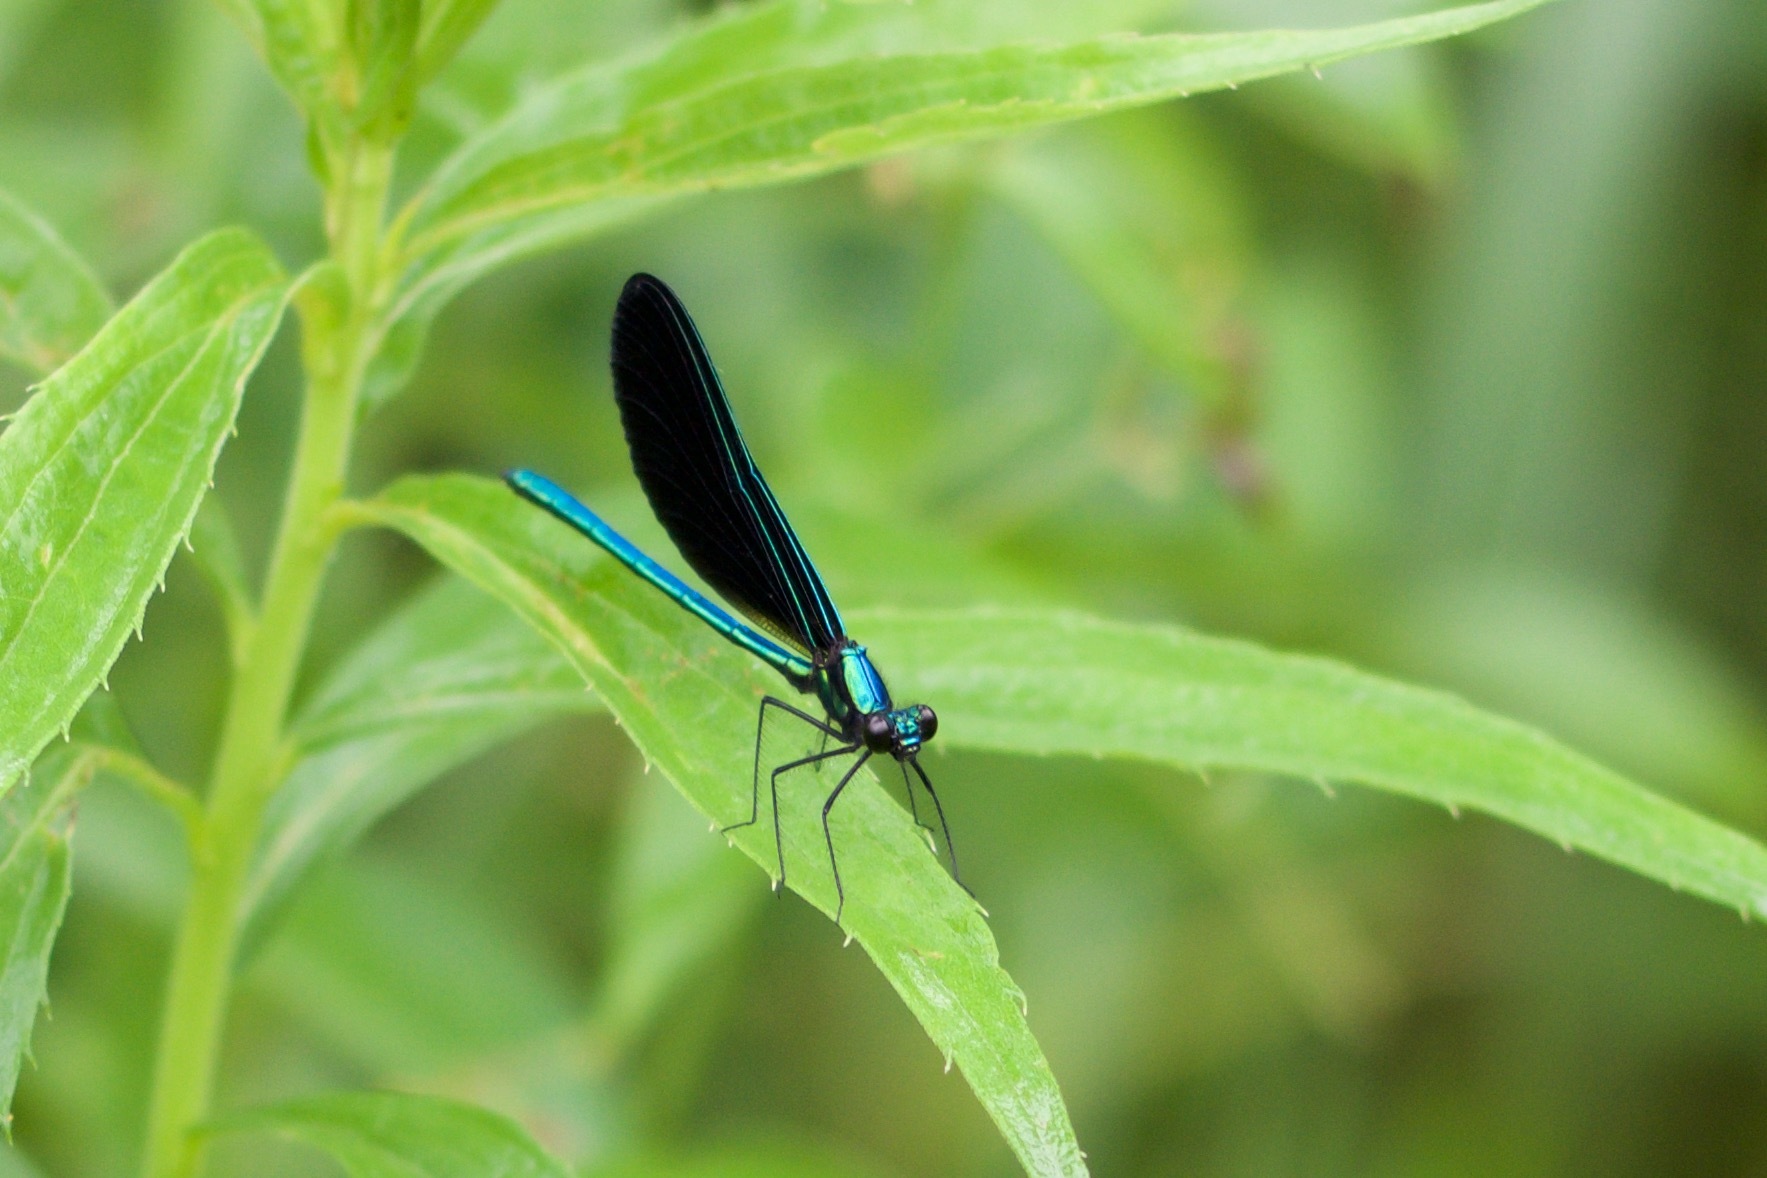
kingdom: Animalia
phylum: Arthropoda
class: Insecta
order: Odonata
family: Calopterygidae
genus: Calopteryx
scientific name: Calopteryx maculata
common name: Ebony jewelwing
